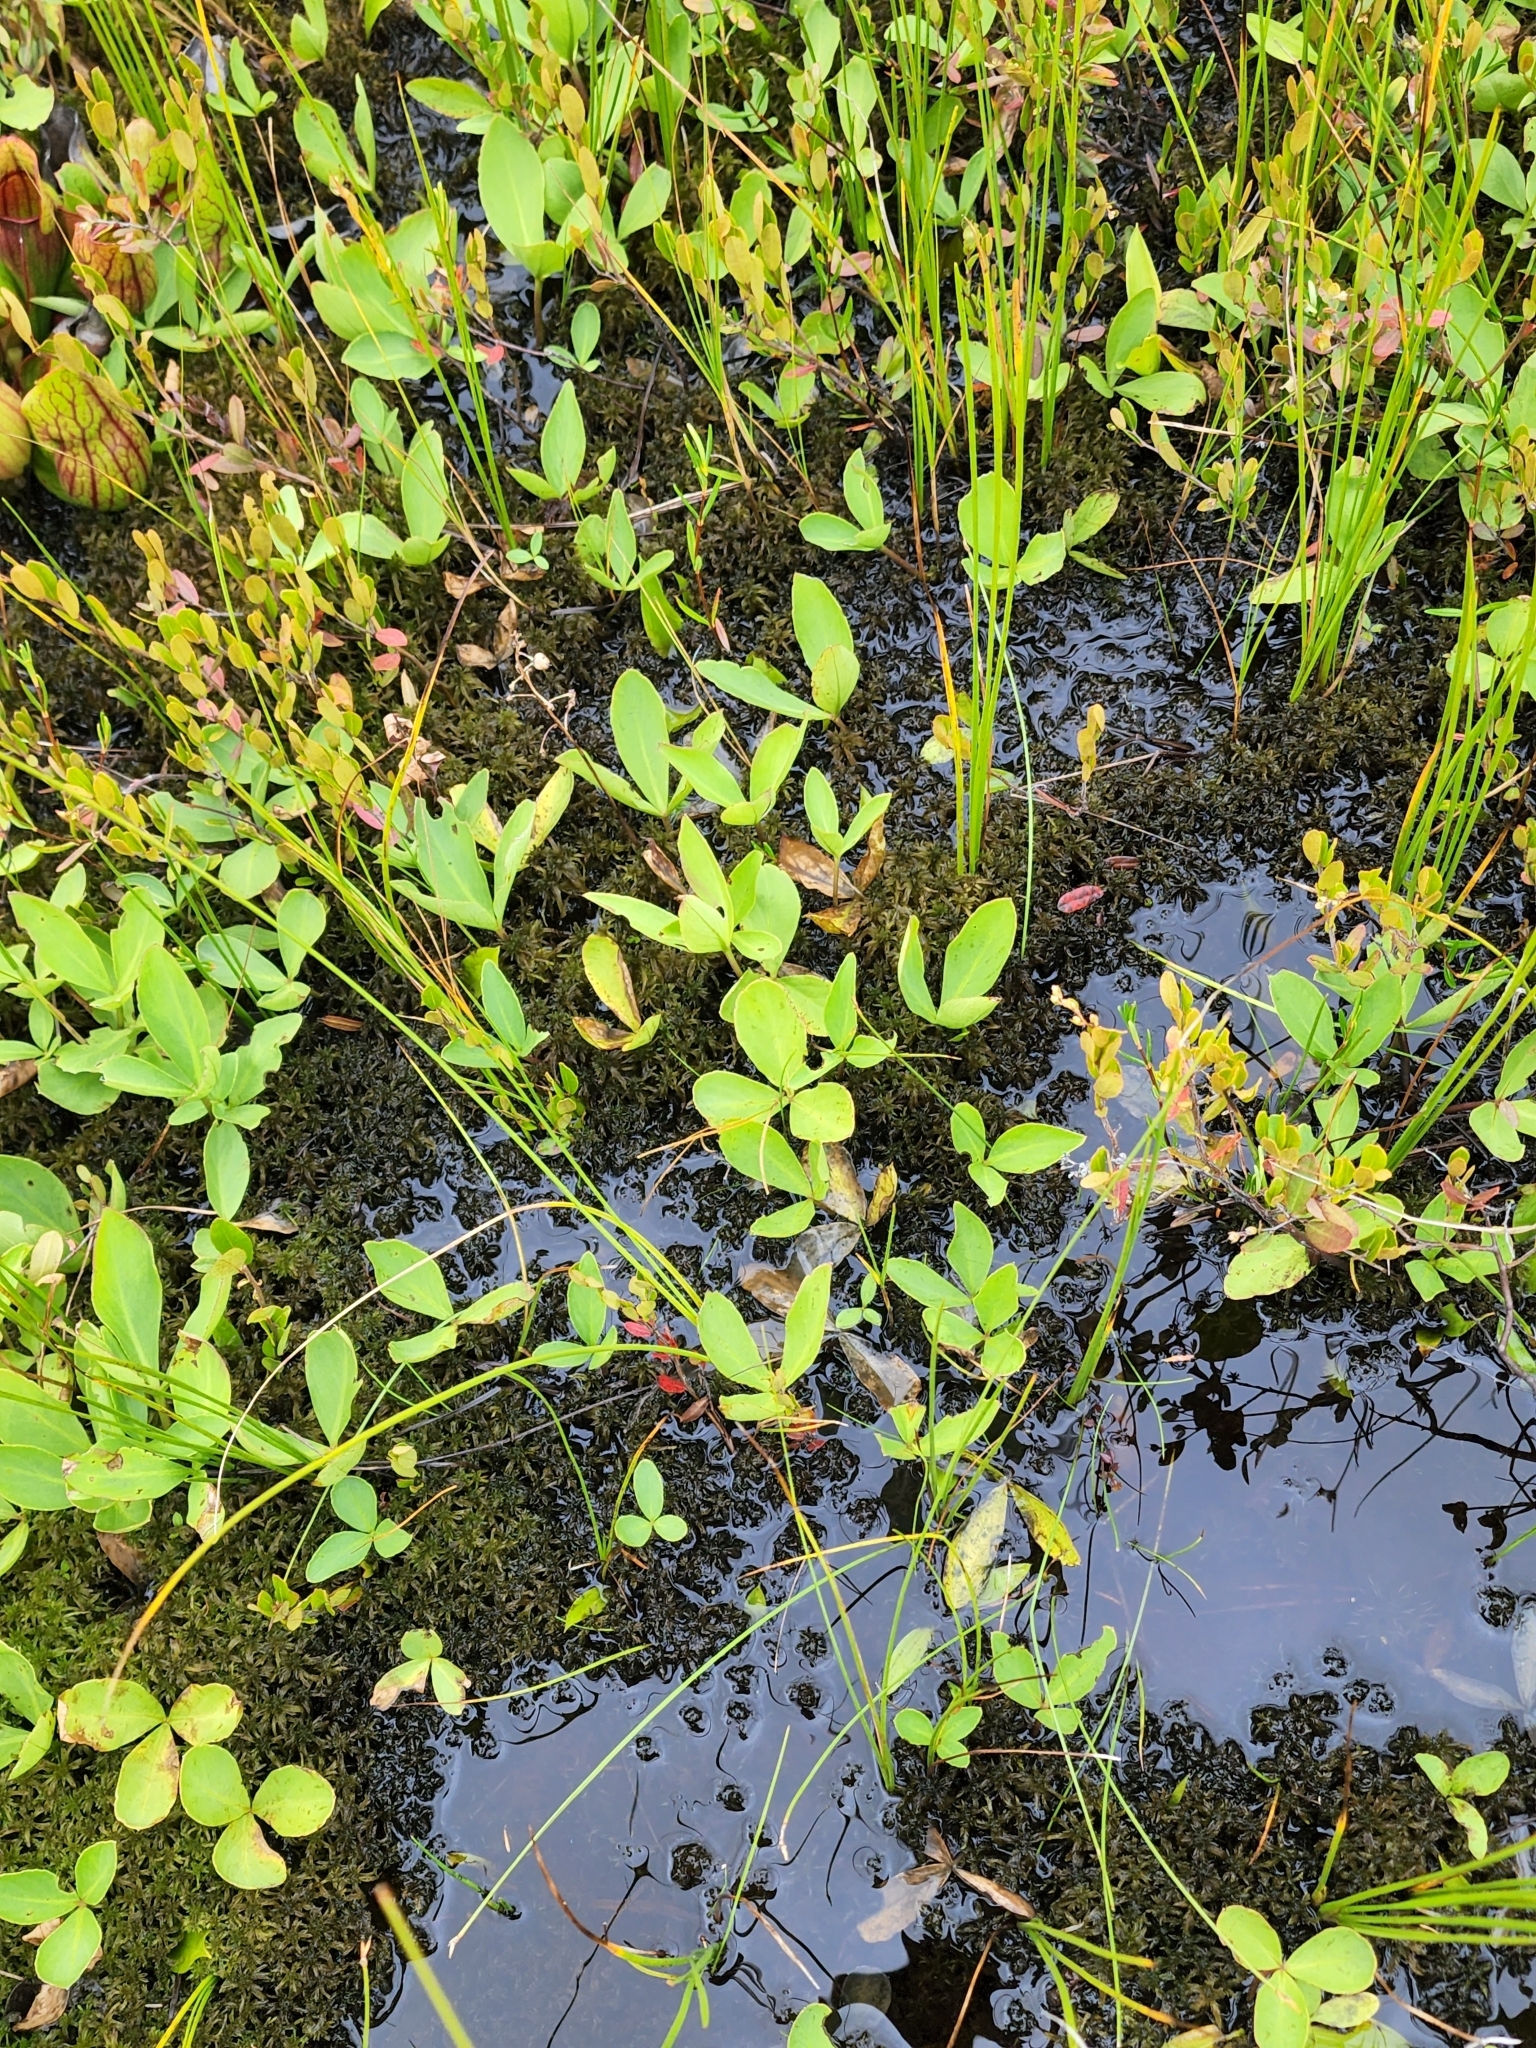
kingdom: Plantae
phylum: Tracheophyta
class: Magnoliopsida
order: Asterales
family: Menyanthaceae
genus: Menyanthes
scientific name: Menyanthes trifoliata
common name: Bogbean
